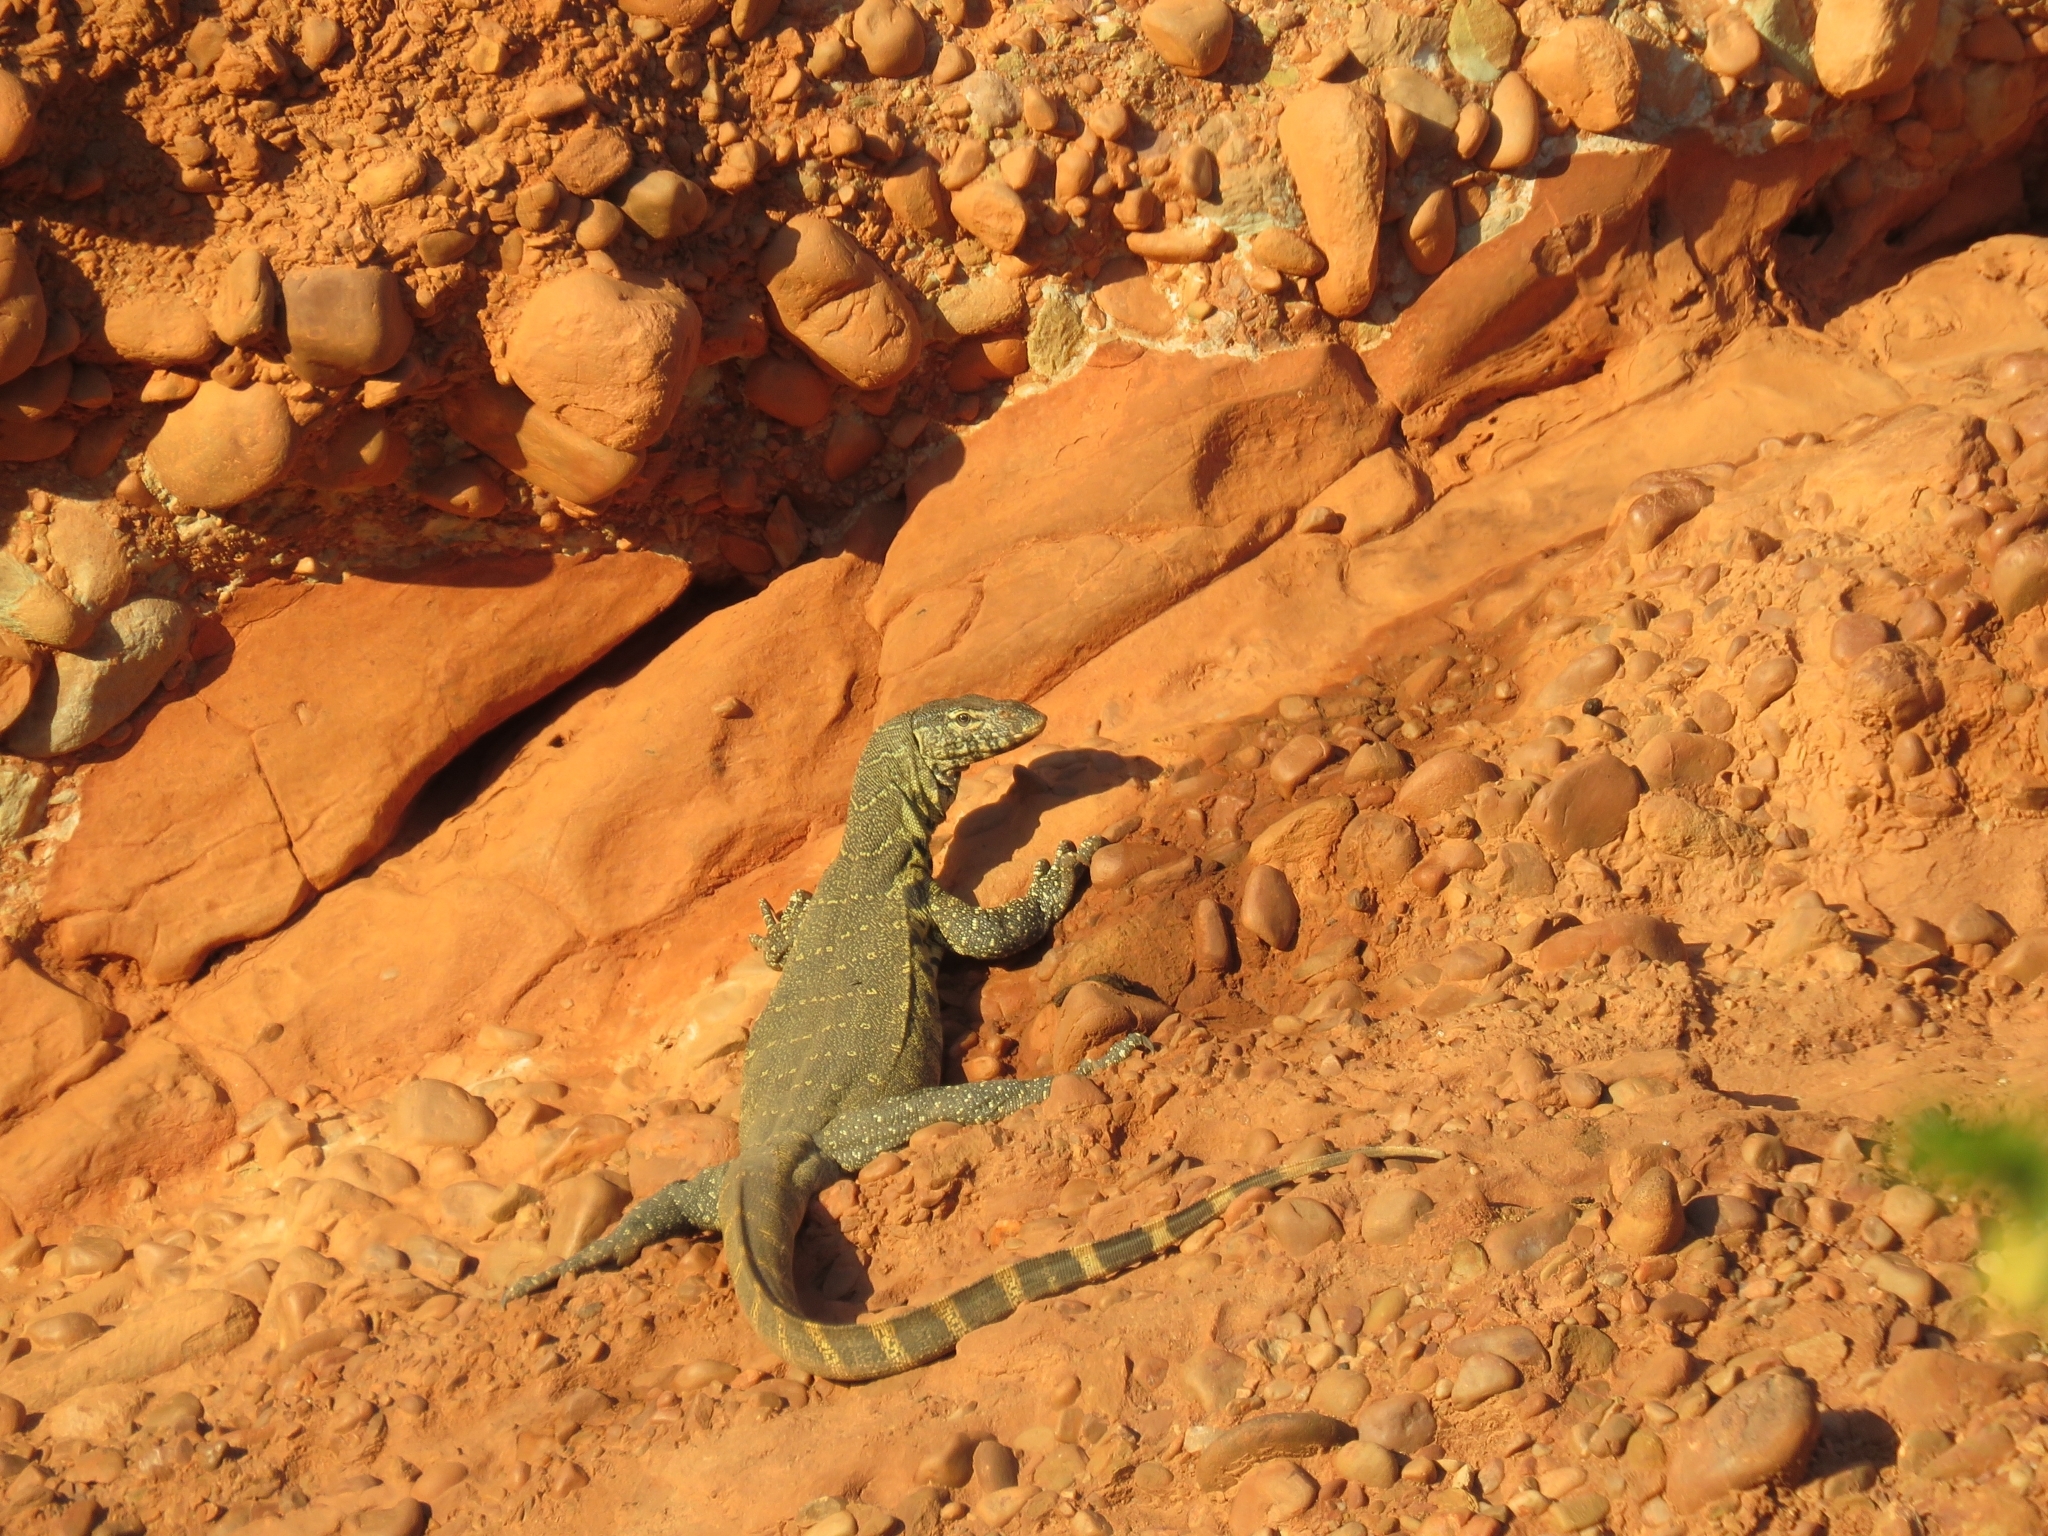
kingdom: Animalia
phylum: Chordata
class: Squamata
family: Varanidae
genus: Varanus
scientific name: Varanus niloticus
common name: Nile monitor
